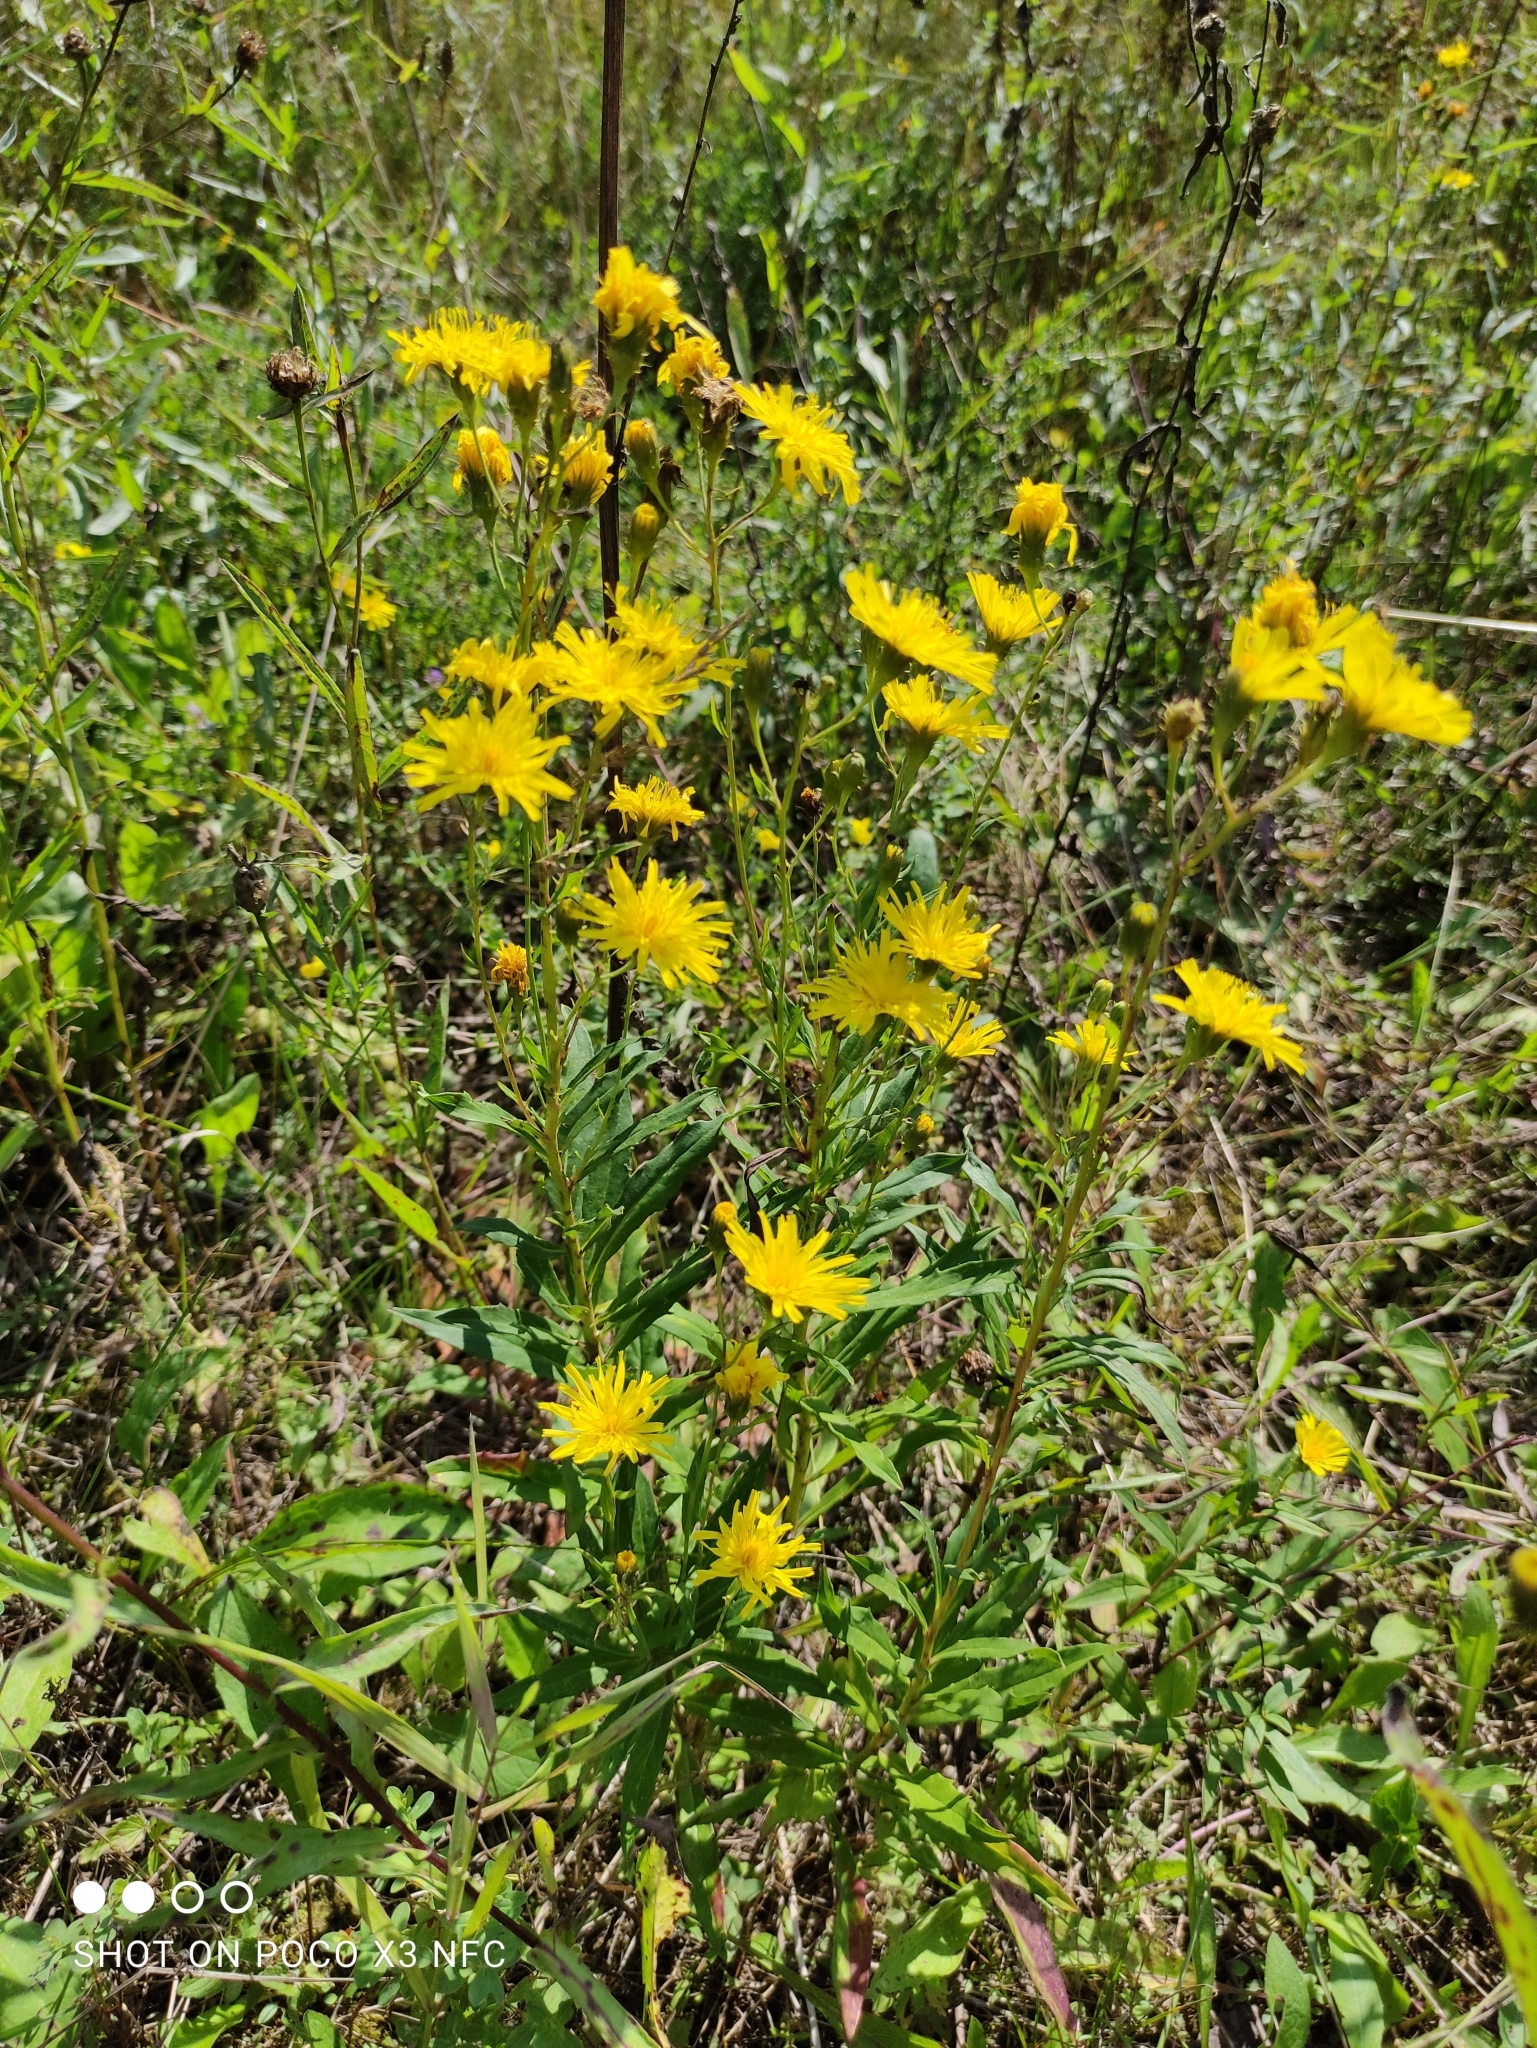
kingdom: Plantae
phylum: Tracheophyta
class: Magnoliopsida
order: Asterales
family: Asteraceae
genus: Hieracium
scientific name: Hieracium umbellatum
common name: Northern hawkweed
